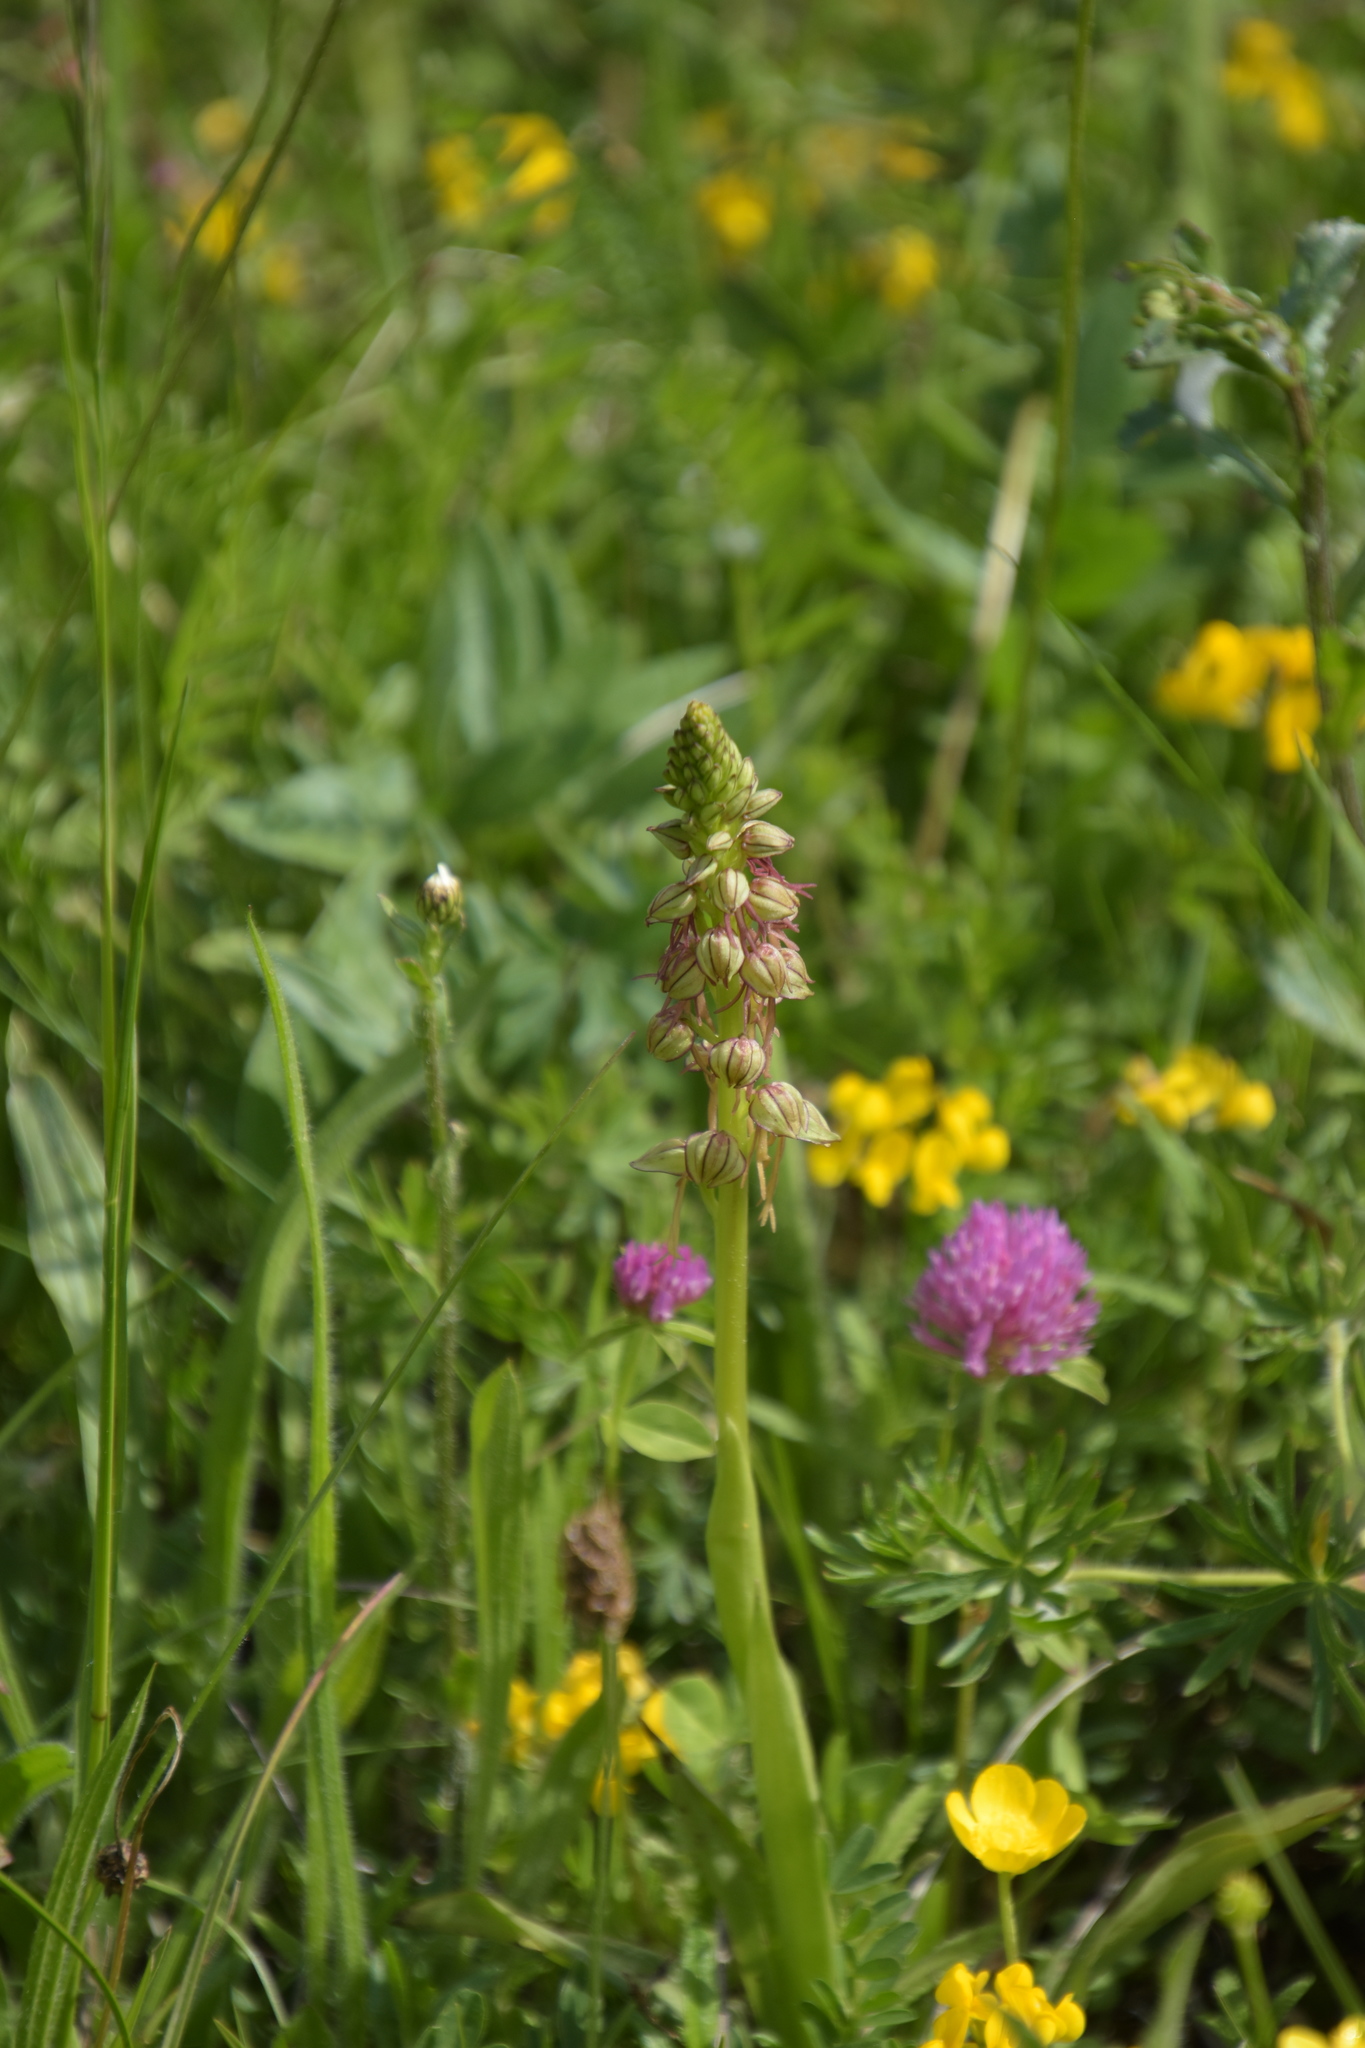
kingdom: Plantae
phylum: Tracheophyta
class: Liliopsida
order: Asparagales
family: Orchidaceae
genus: Orchis
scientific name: Orchis anthropophora
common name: Man orchid
